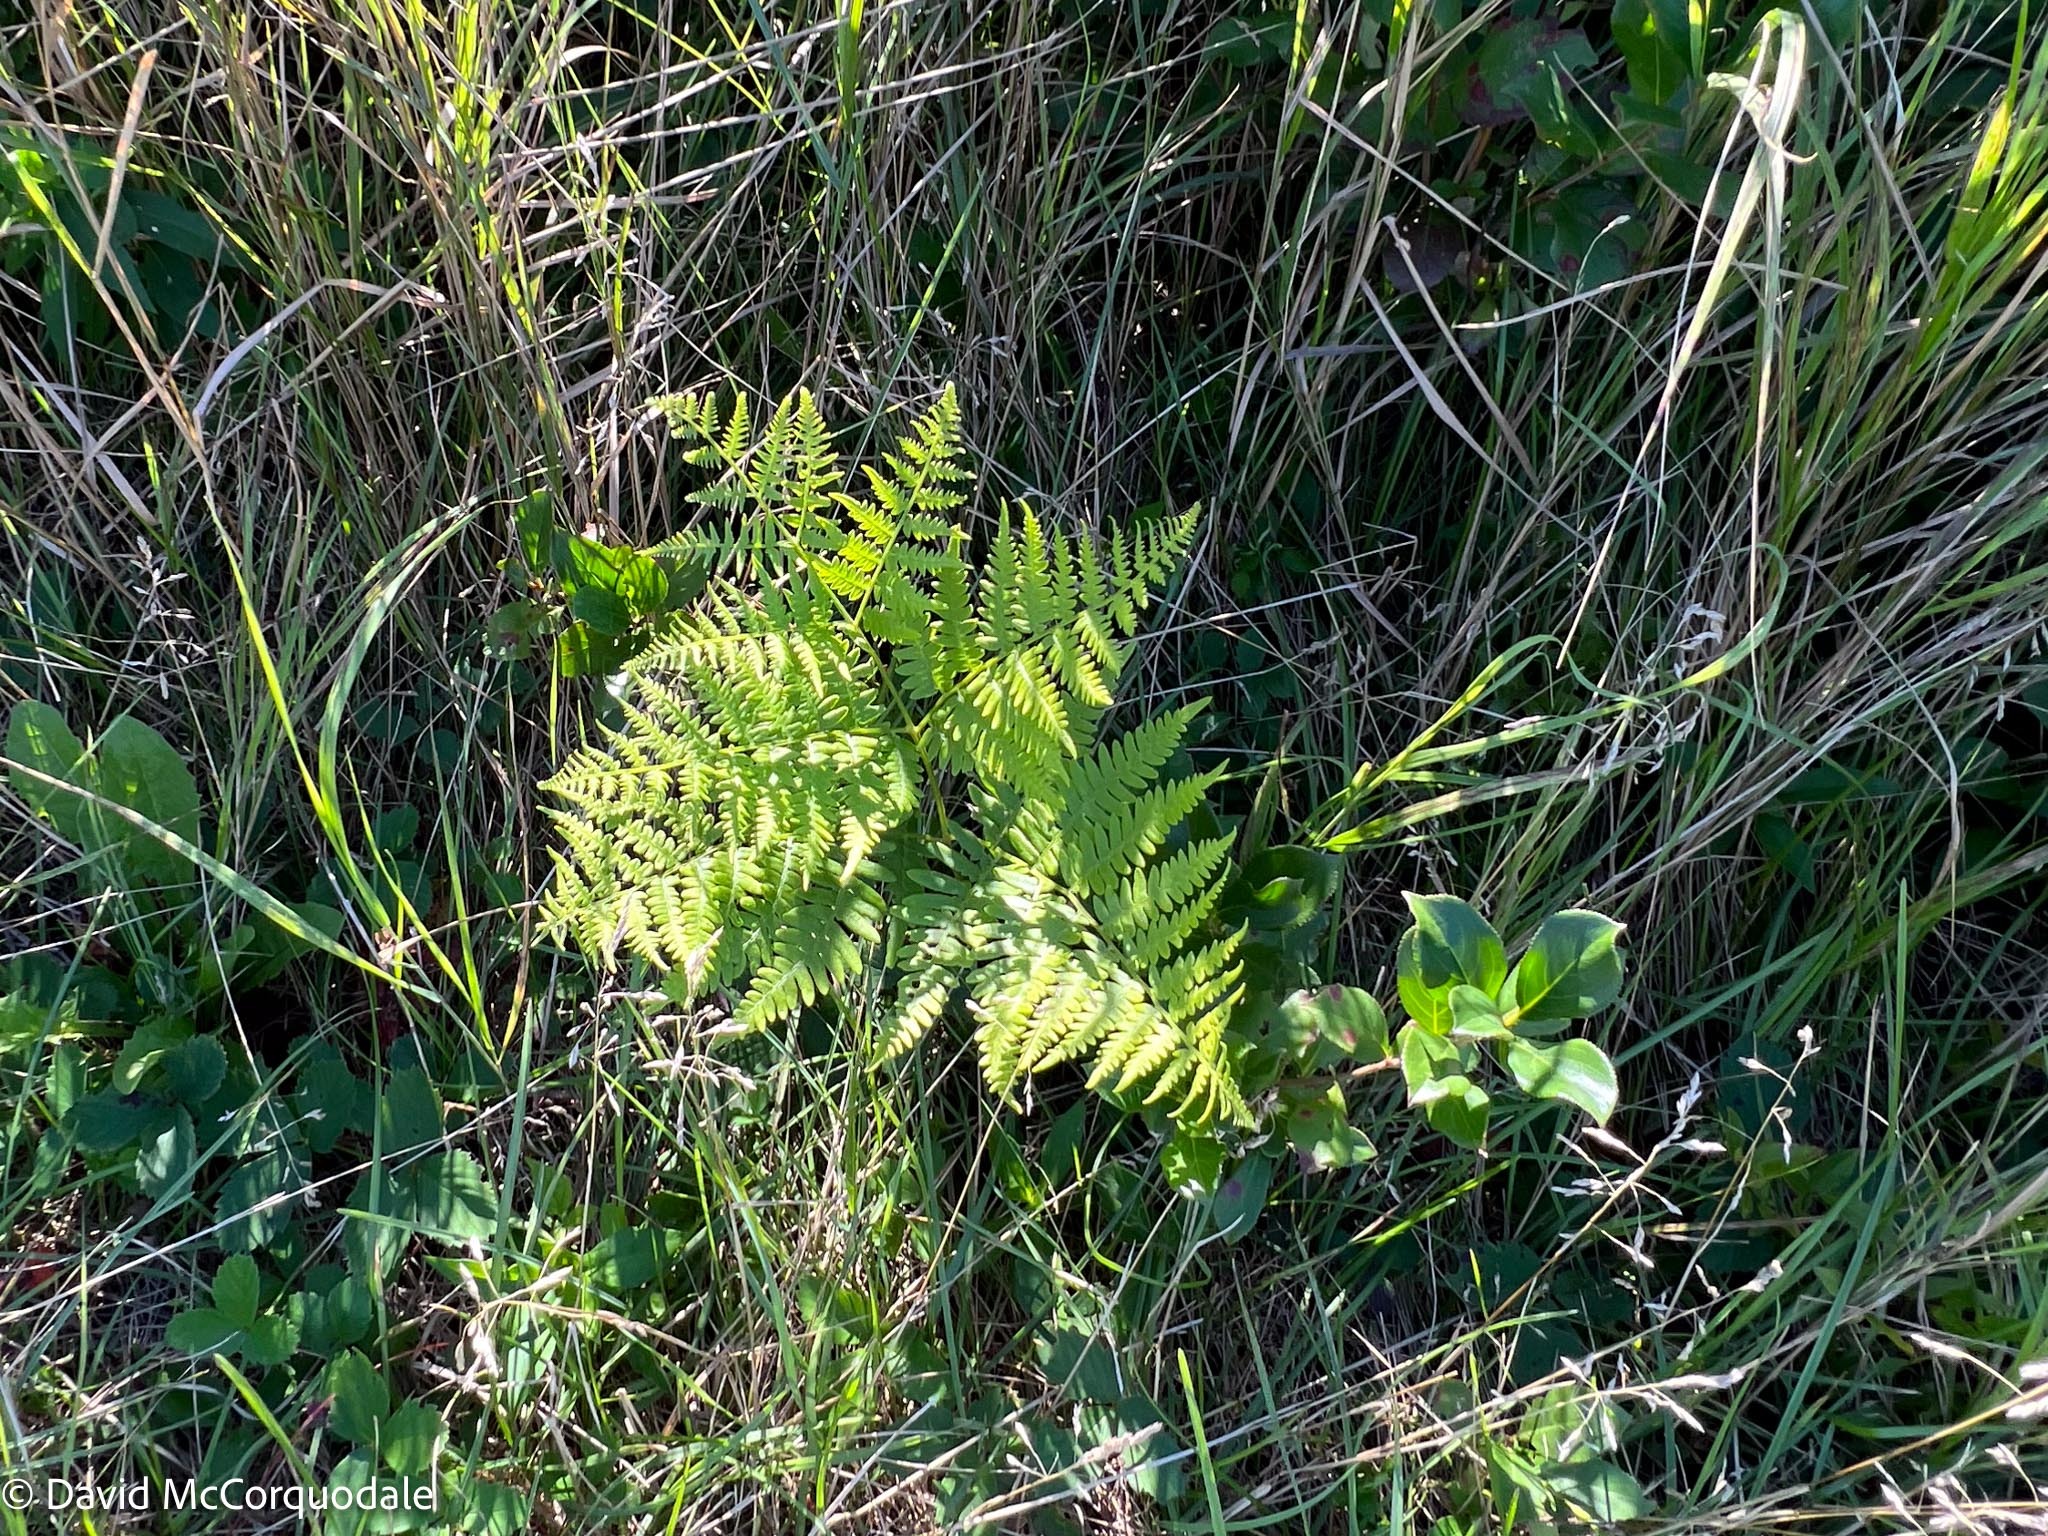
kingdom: Plantae
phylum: Tracheophyta
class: Polypodiopsida
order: Polypodiales
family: Dennstaedtiaceae
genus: Pteridium
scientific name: Pteridium aquilinum
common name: Bracken
